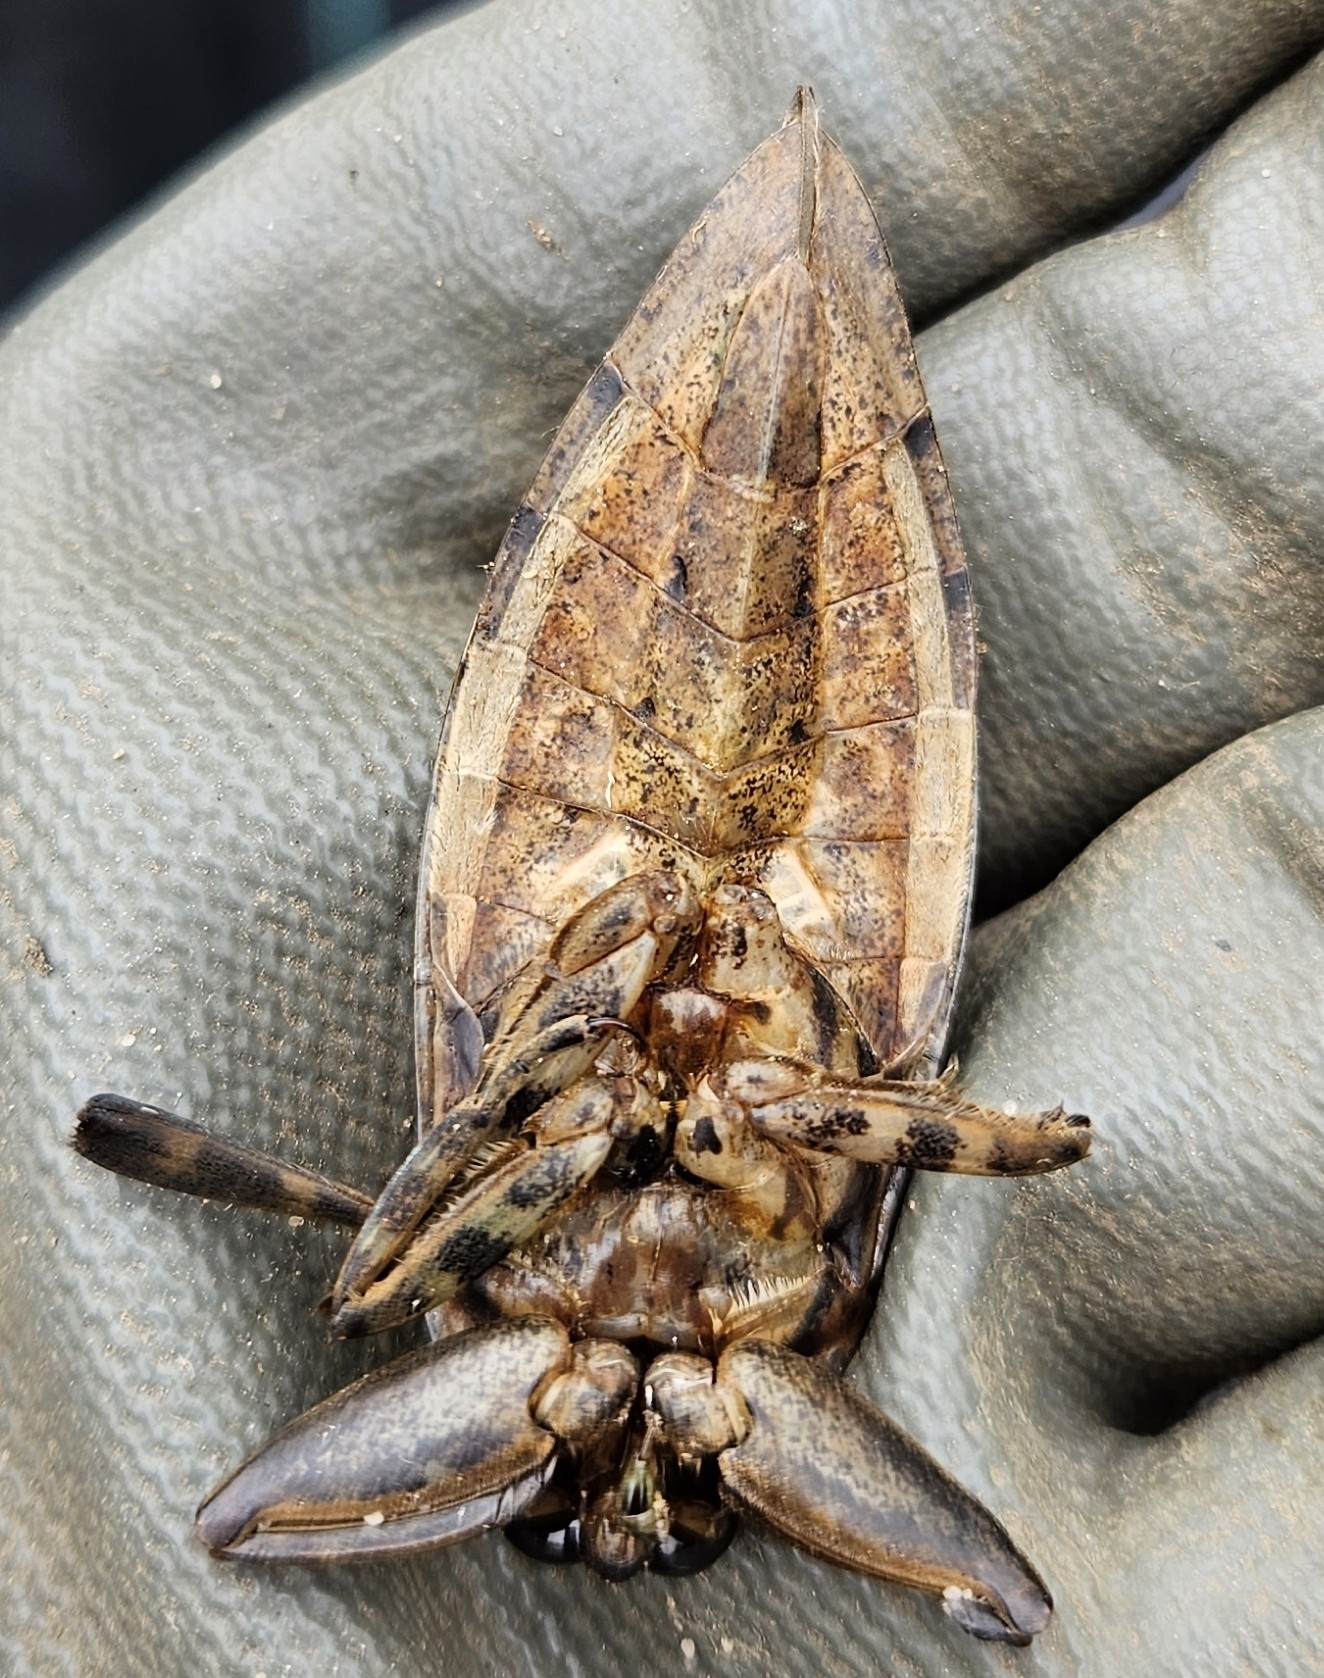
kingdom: Animalia
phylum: Arthropoda
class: Insecta
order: Hemiptera
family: Belostomatidae
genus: Lethocerus
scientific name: Lethocerus americanus
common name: Giant water bug
